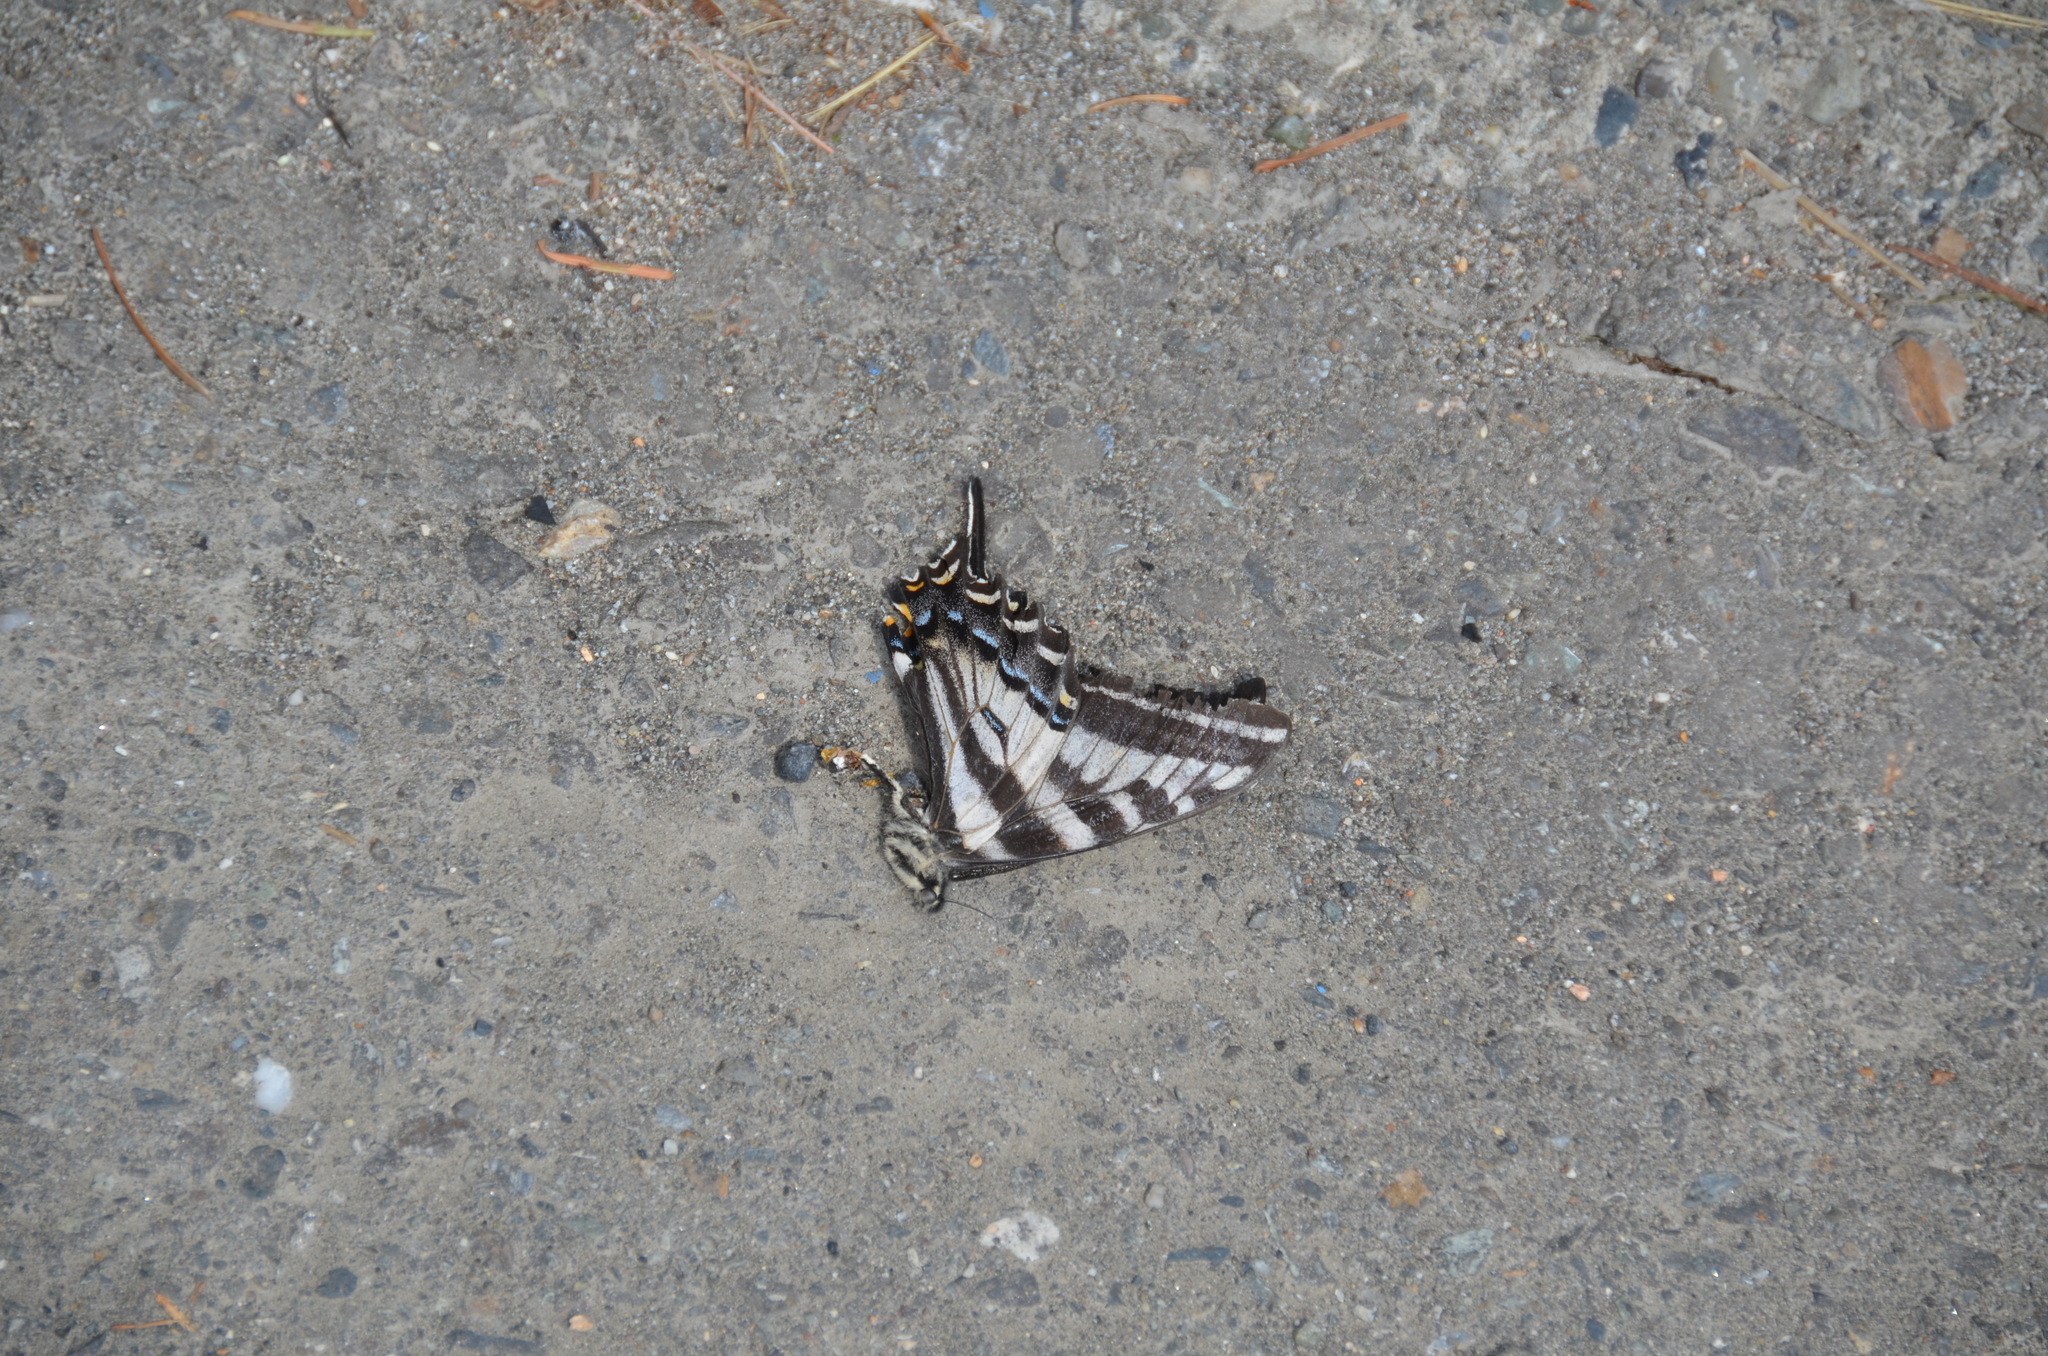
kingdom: Animalia
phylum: Arthropoda
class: Insecta
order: Lepidoptera
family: Papilionidae
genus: Papilio
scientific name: Papilio eurymedon
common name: Pale tiger swallowtail
